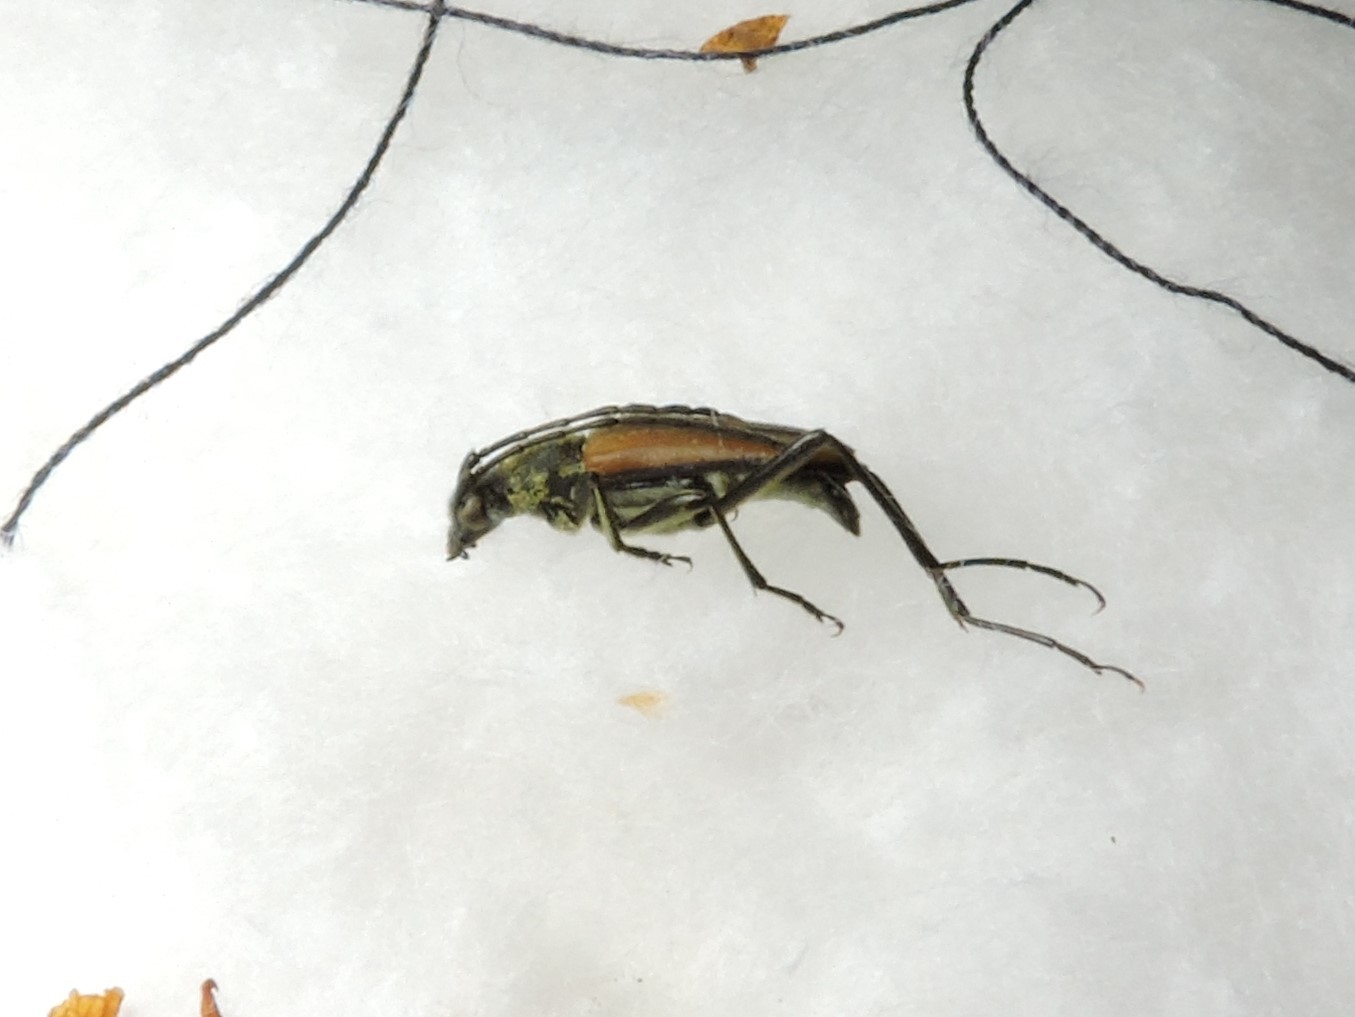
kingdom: Animalia
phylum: Arthropoda
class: Insecta
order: Coleoptera
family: Cerambycidae
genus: Anastrangalia
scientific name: Anastrangalia reyi
